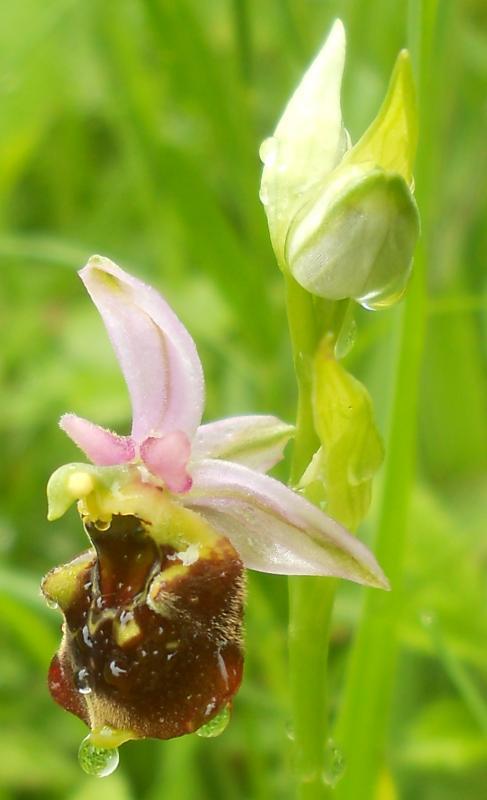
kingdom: Plantae
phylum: Tracheophyta
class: Liliopsida
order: Asparagales
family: Orchidaceae
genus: Ophrys
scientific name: Ophrys holosericea
